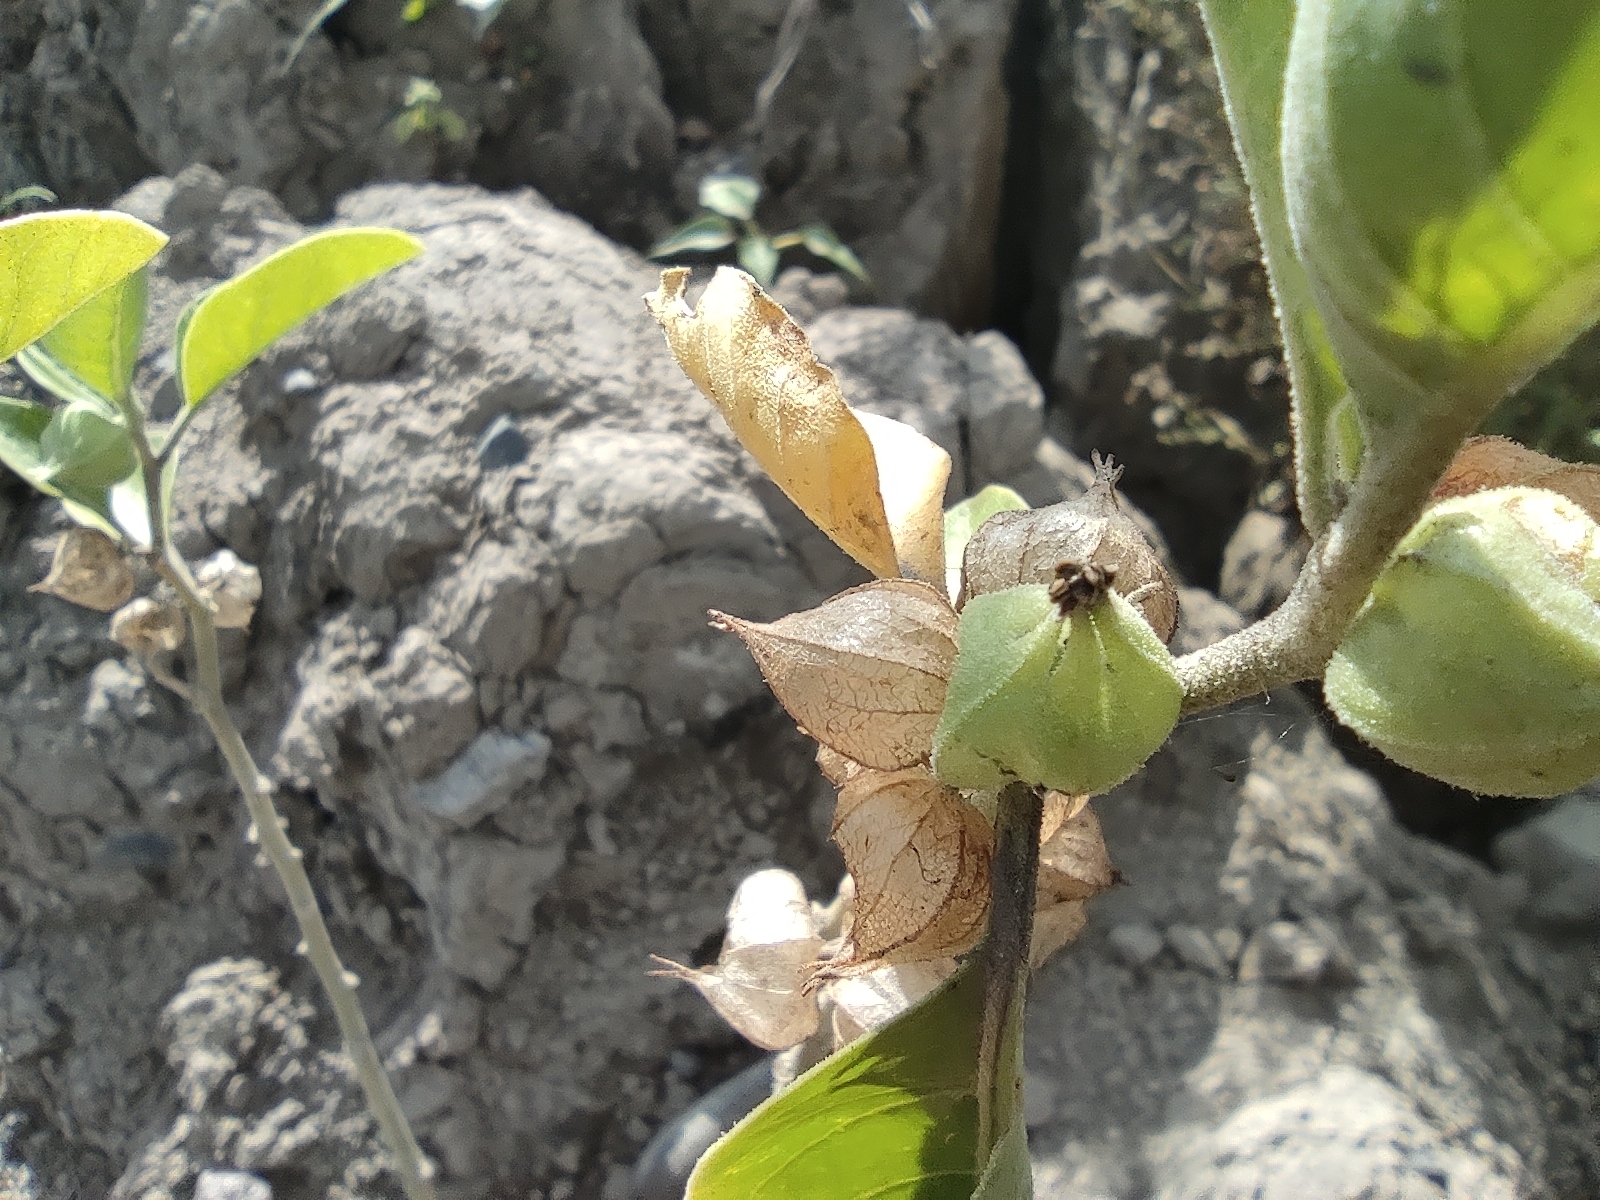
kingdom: Plantae
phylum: Tracheophyta
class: Magnoliopsida
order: Solanales
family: Solanaceae
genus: Withania
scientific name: Withania somnifera
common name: Winter-cherry
